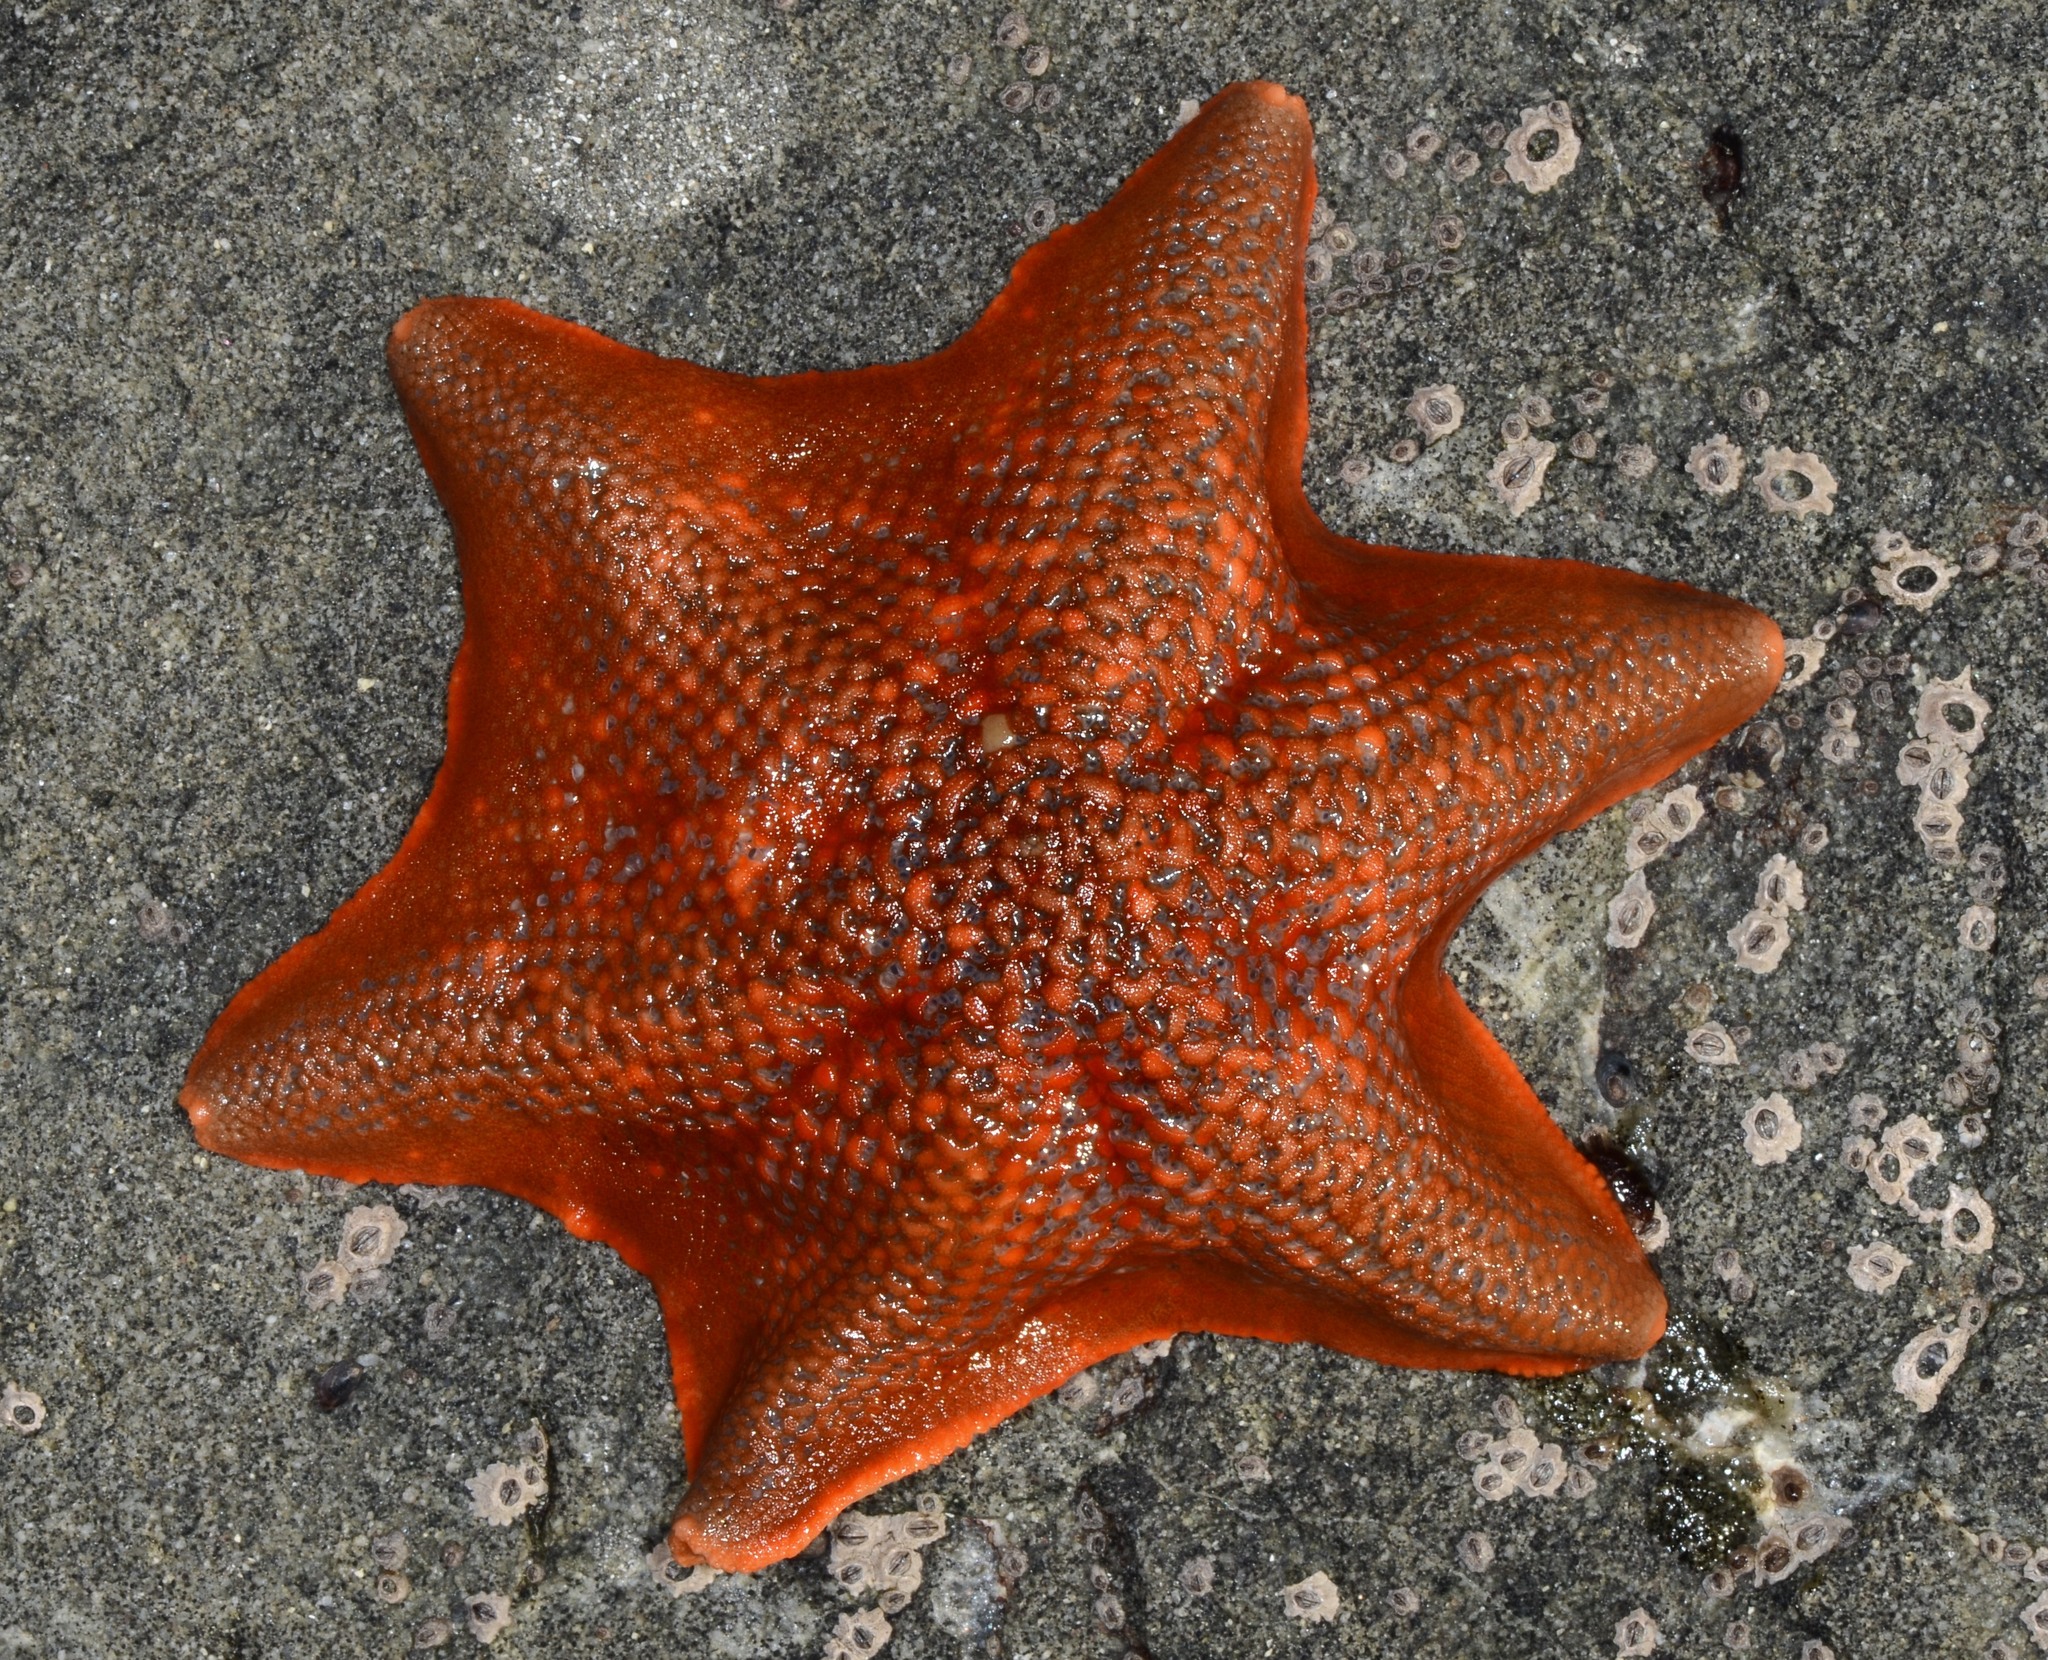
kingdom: Animalia
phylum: Echinodermata
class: Asteroidea
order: Valvatida
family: Asterinidae
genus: Patiria
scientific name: Patiria miniata
